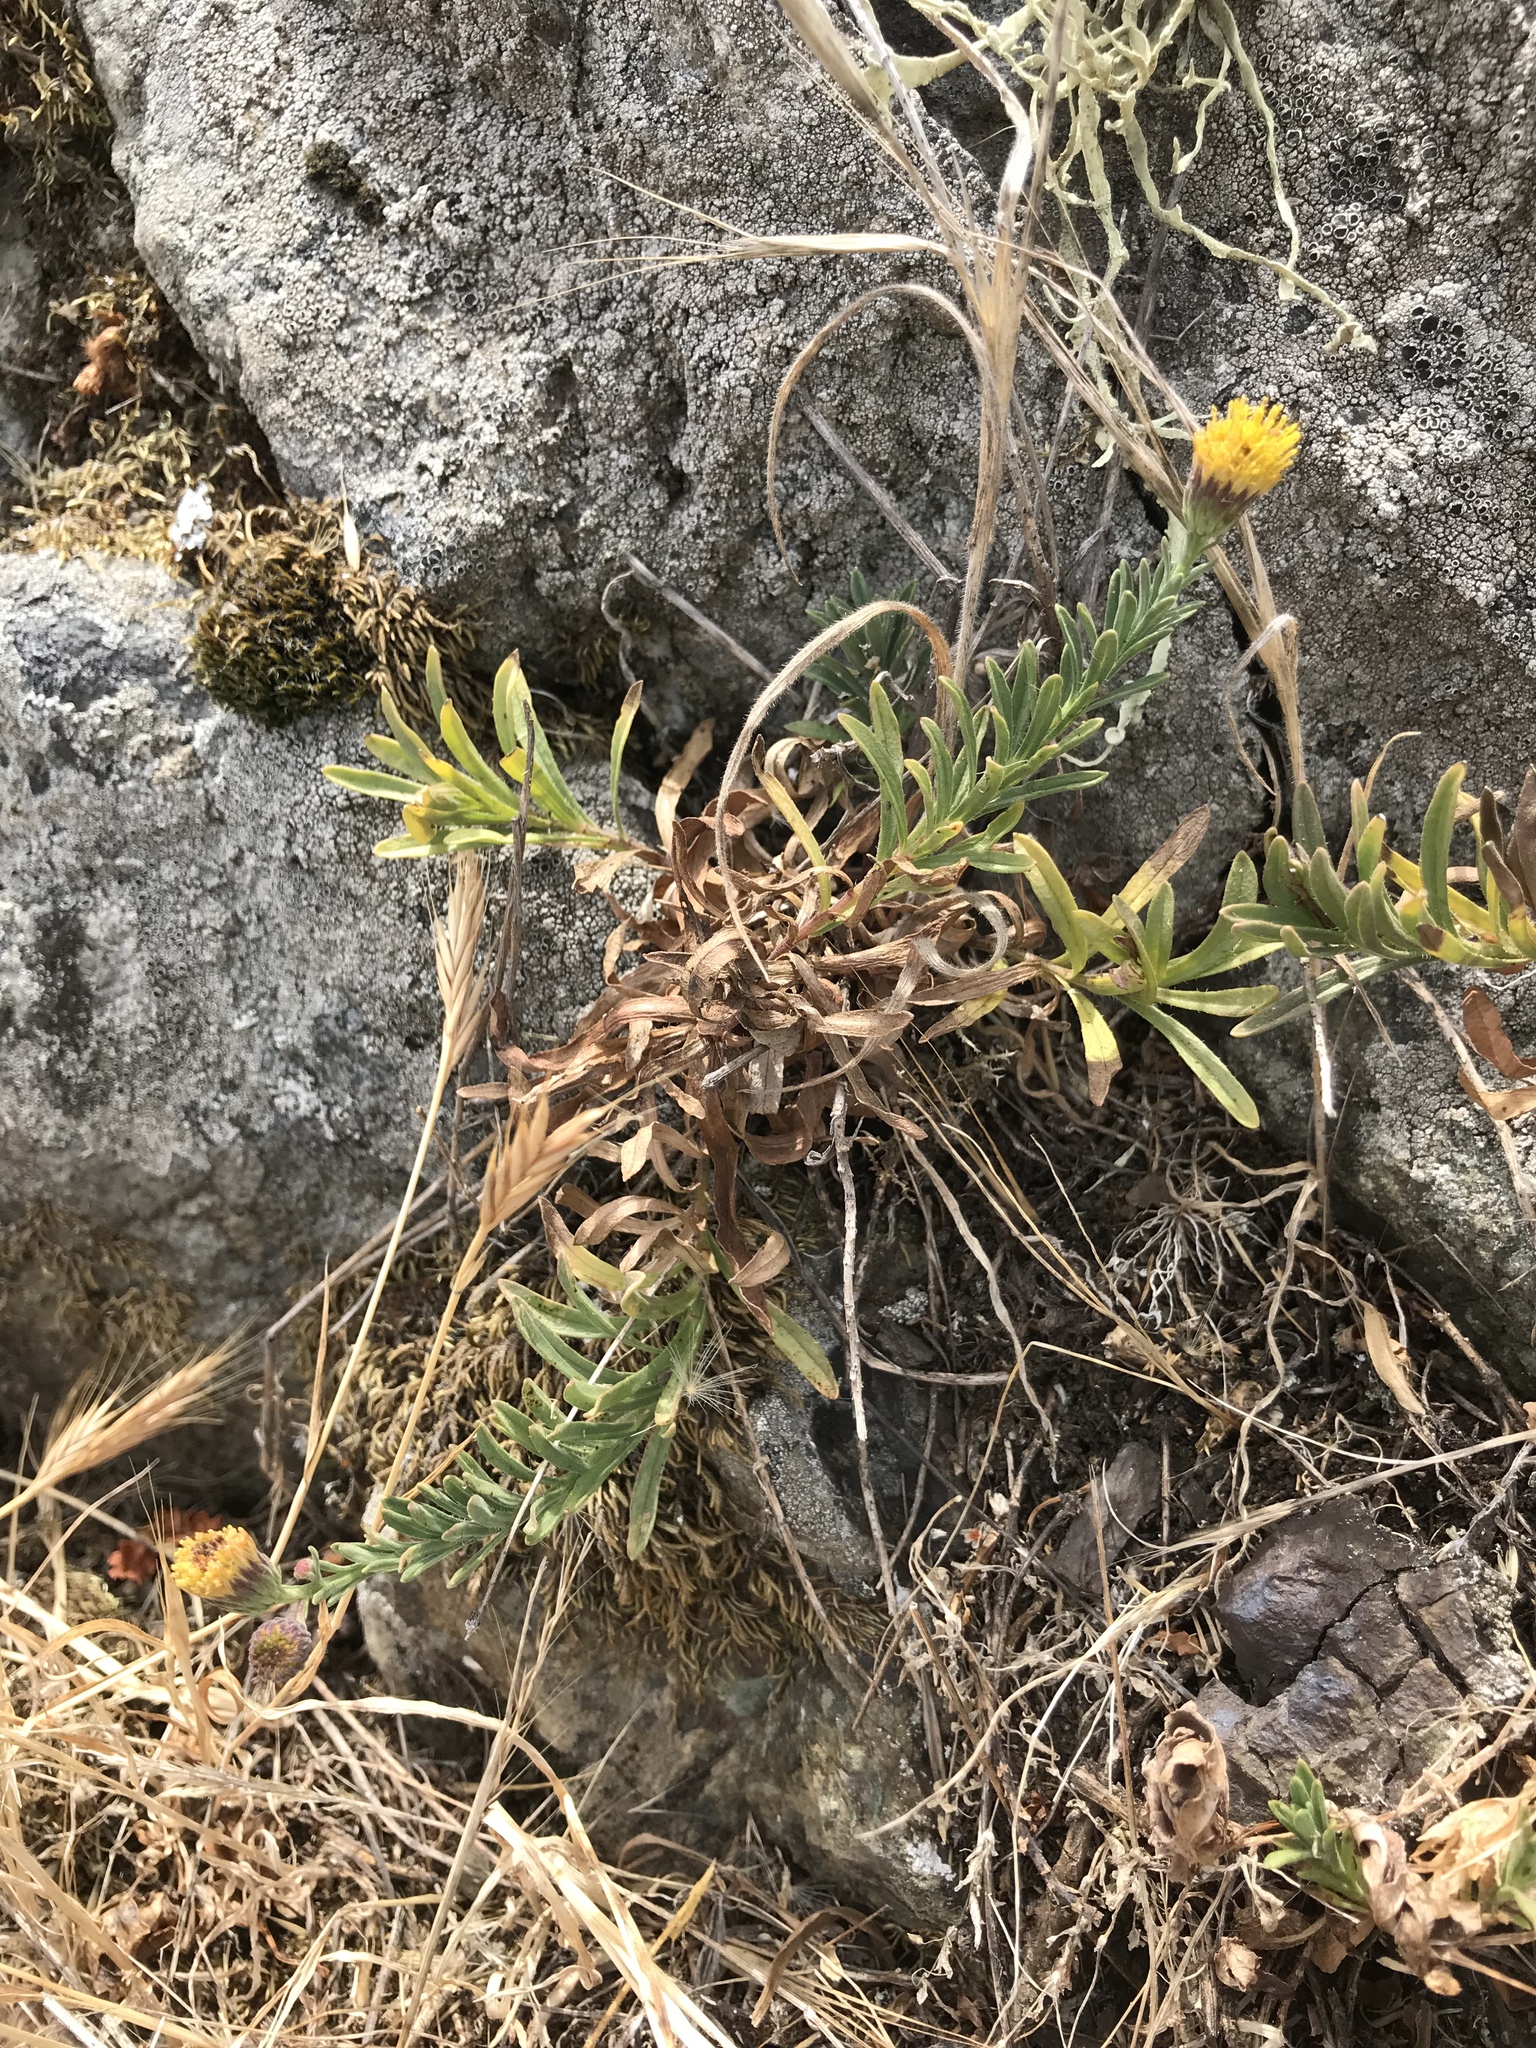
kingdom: Plantae
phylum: Tracheophyta
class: Magnoliopsida
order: Asterales
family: Asteraceae
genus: Erigeron
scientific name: Erigeron petrophilus
